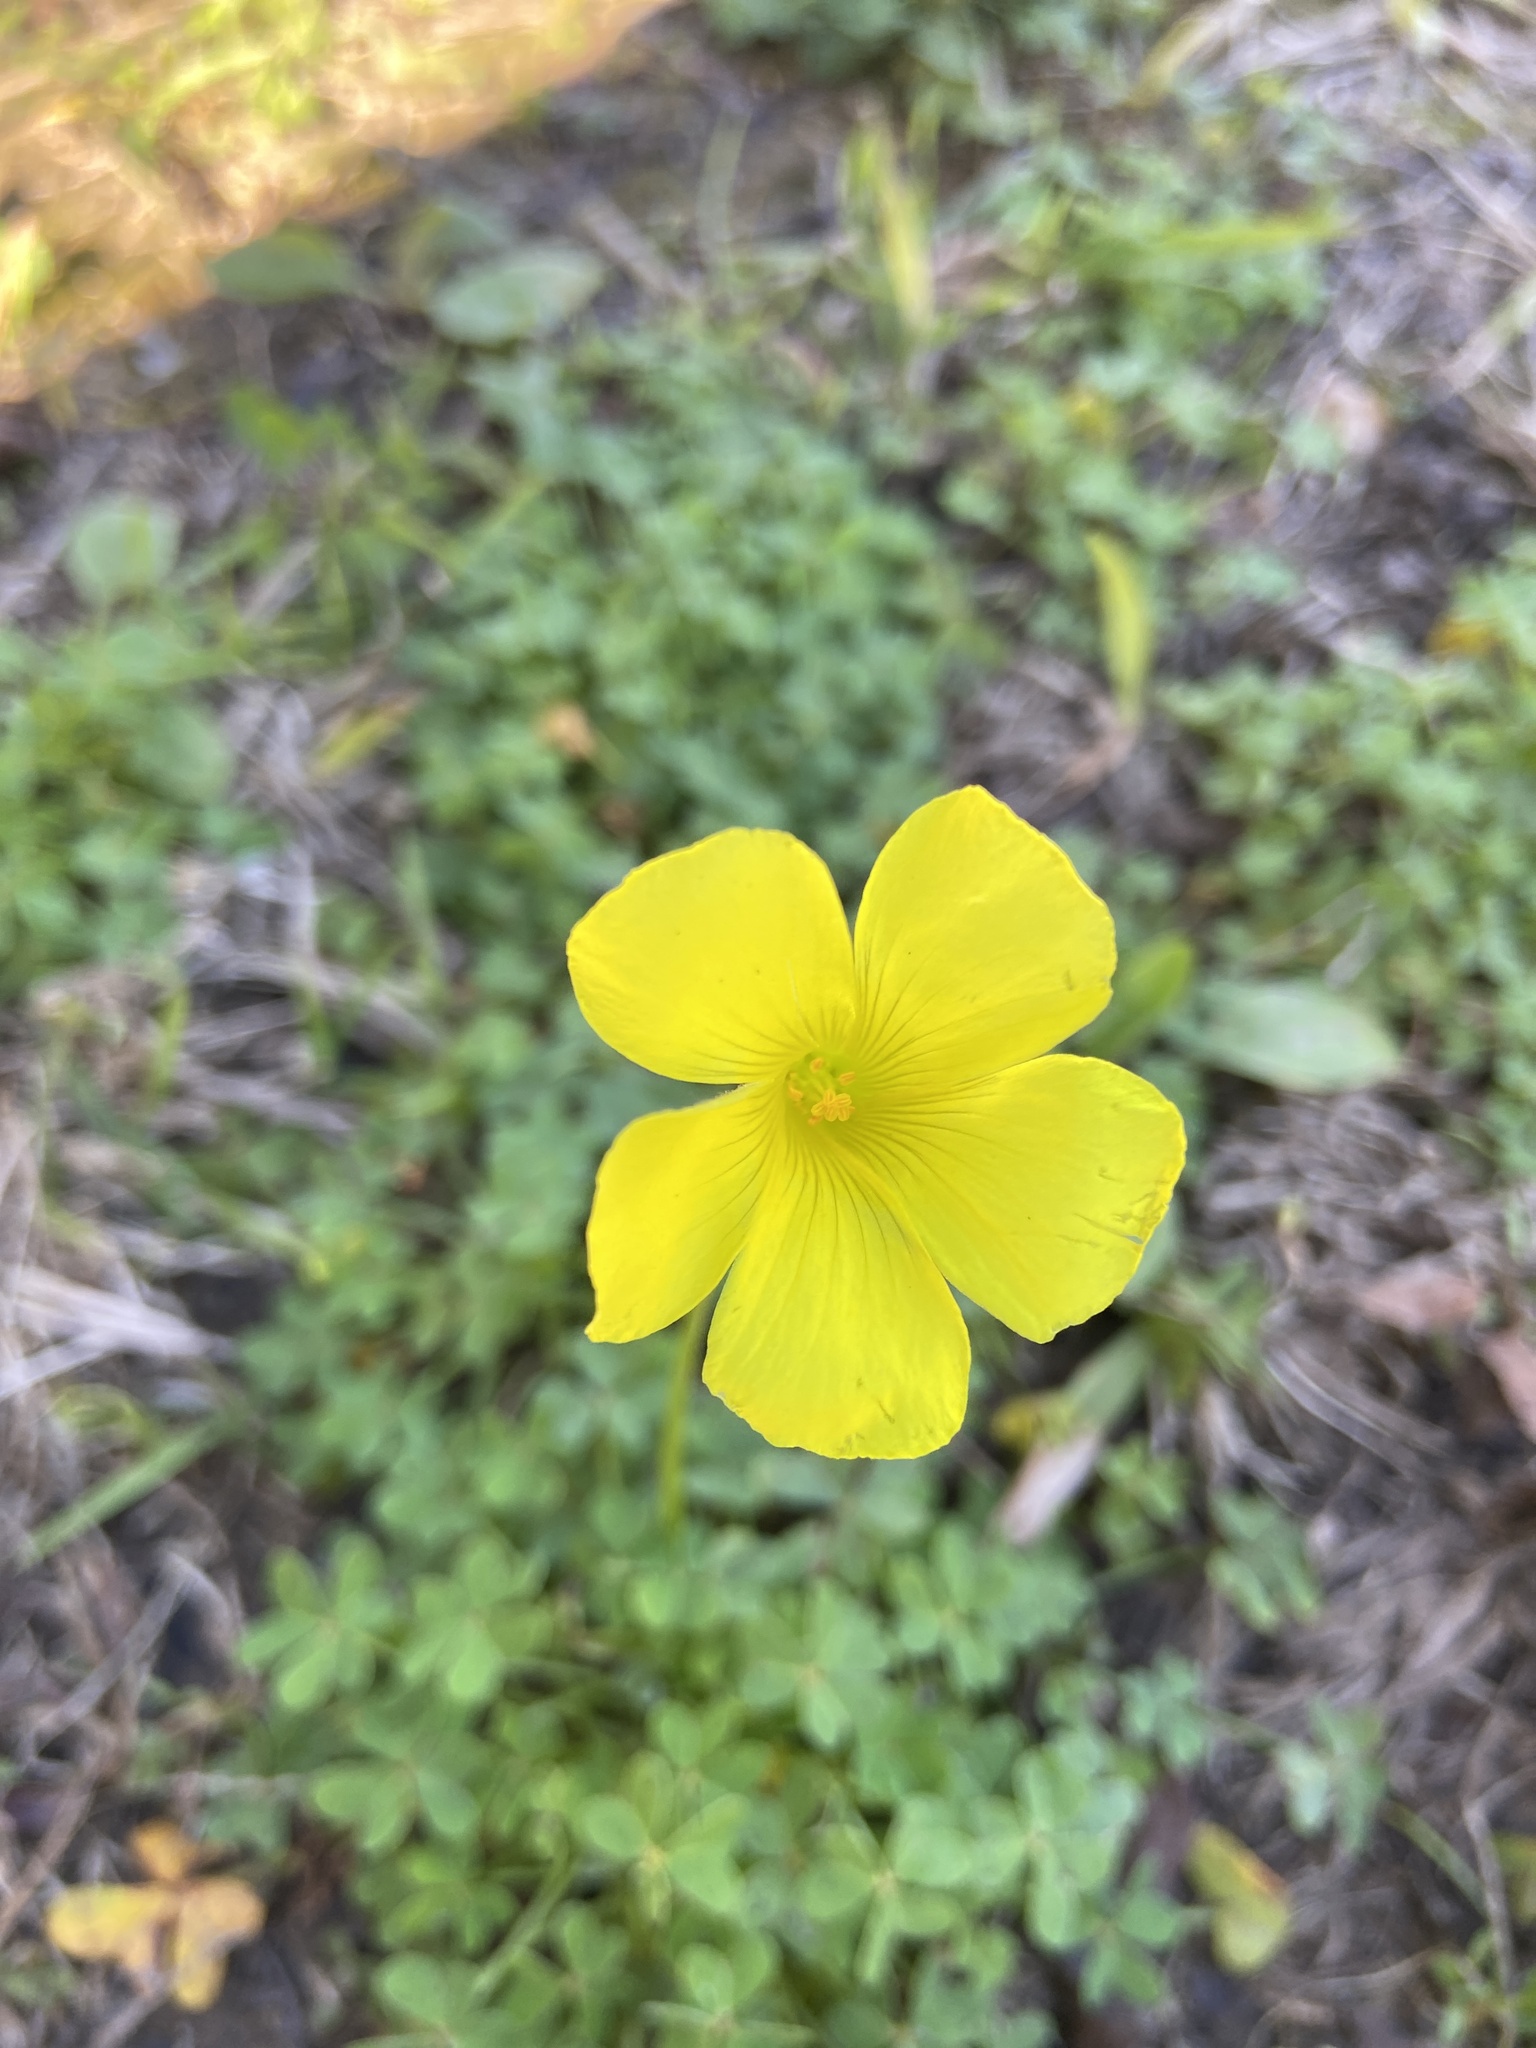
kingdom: Plantae
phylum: Tracheophyta
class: Magnoliopsida
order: Oxalidales
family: Oxalidaceae
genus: Oxalis
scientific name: Oxalis pes-caprae
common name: Bermuda-buttercup
